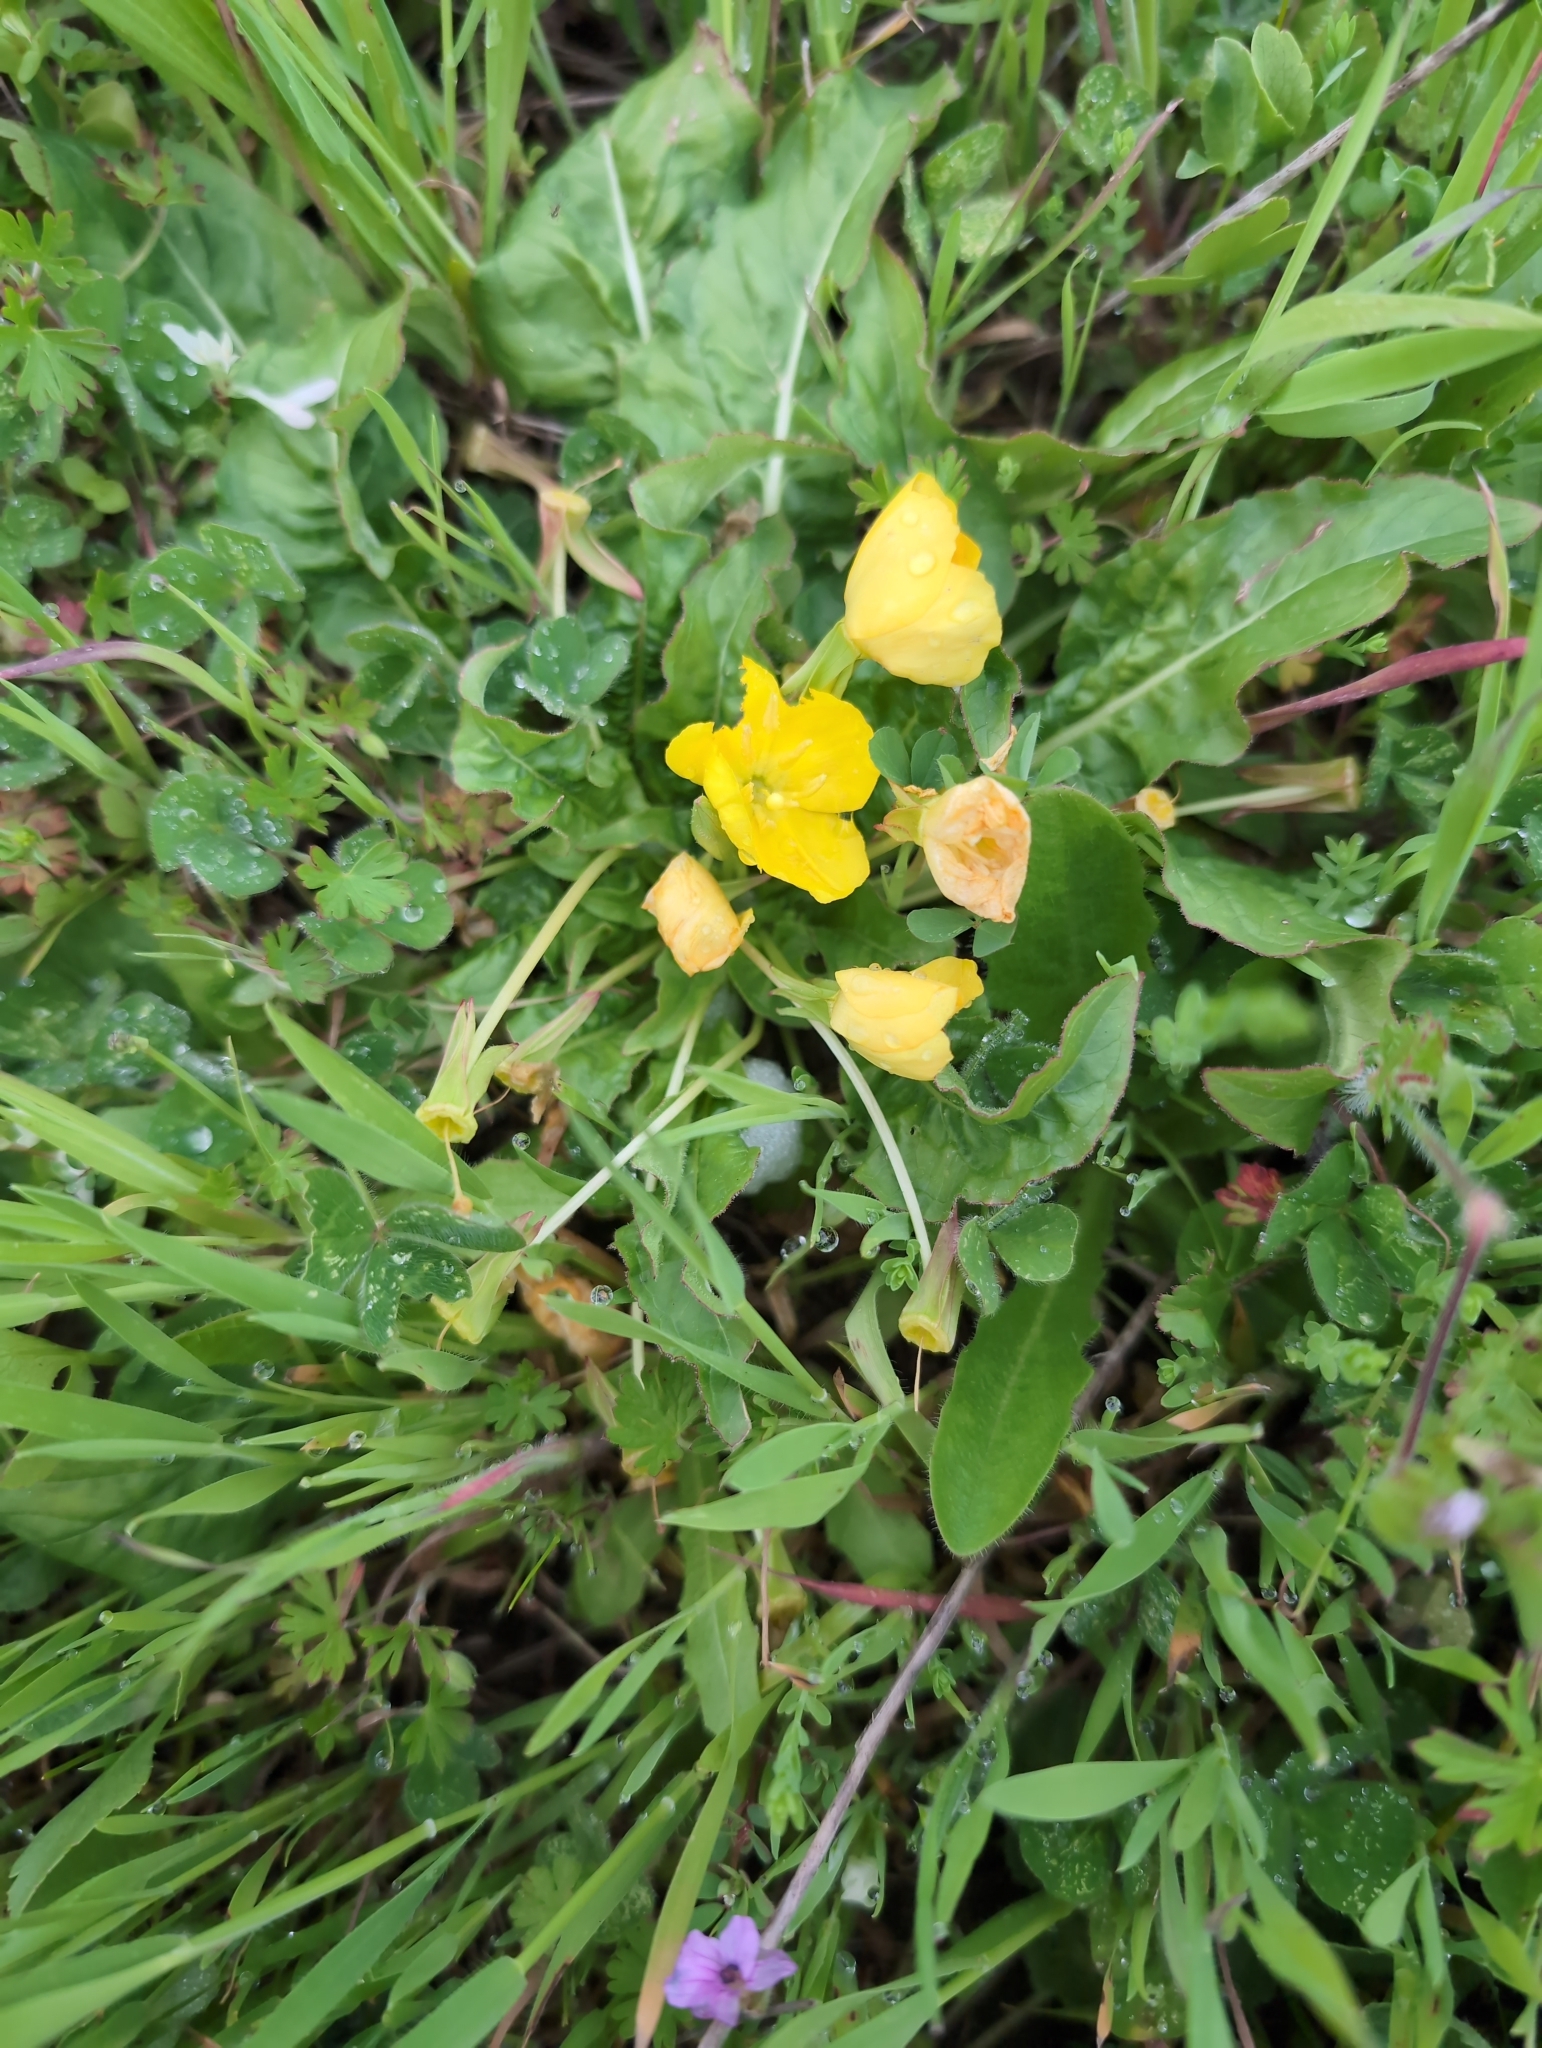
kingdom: Plantae
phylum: Tracheophyta
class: Magnoliopsida
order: Myrtales
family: Onagraceae
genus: Taraxia
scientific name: Taraxia ovata
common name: Goldeneggs
